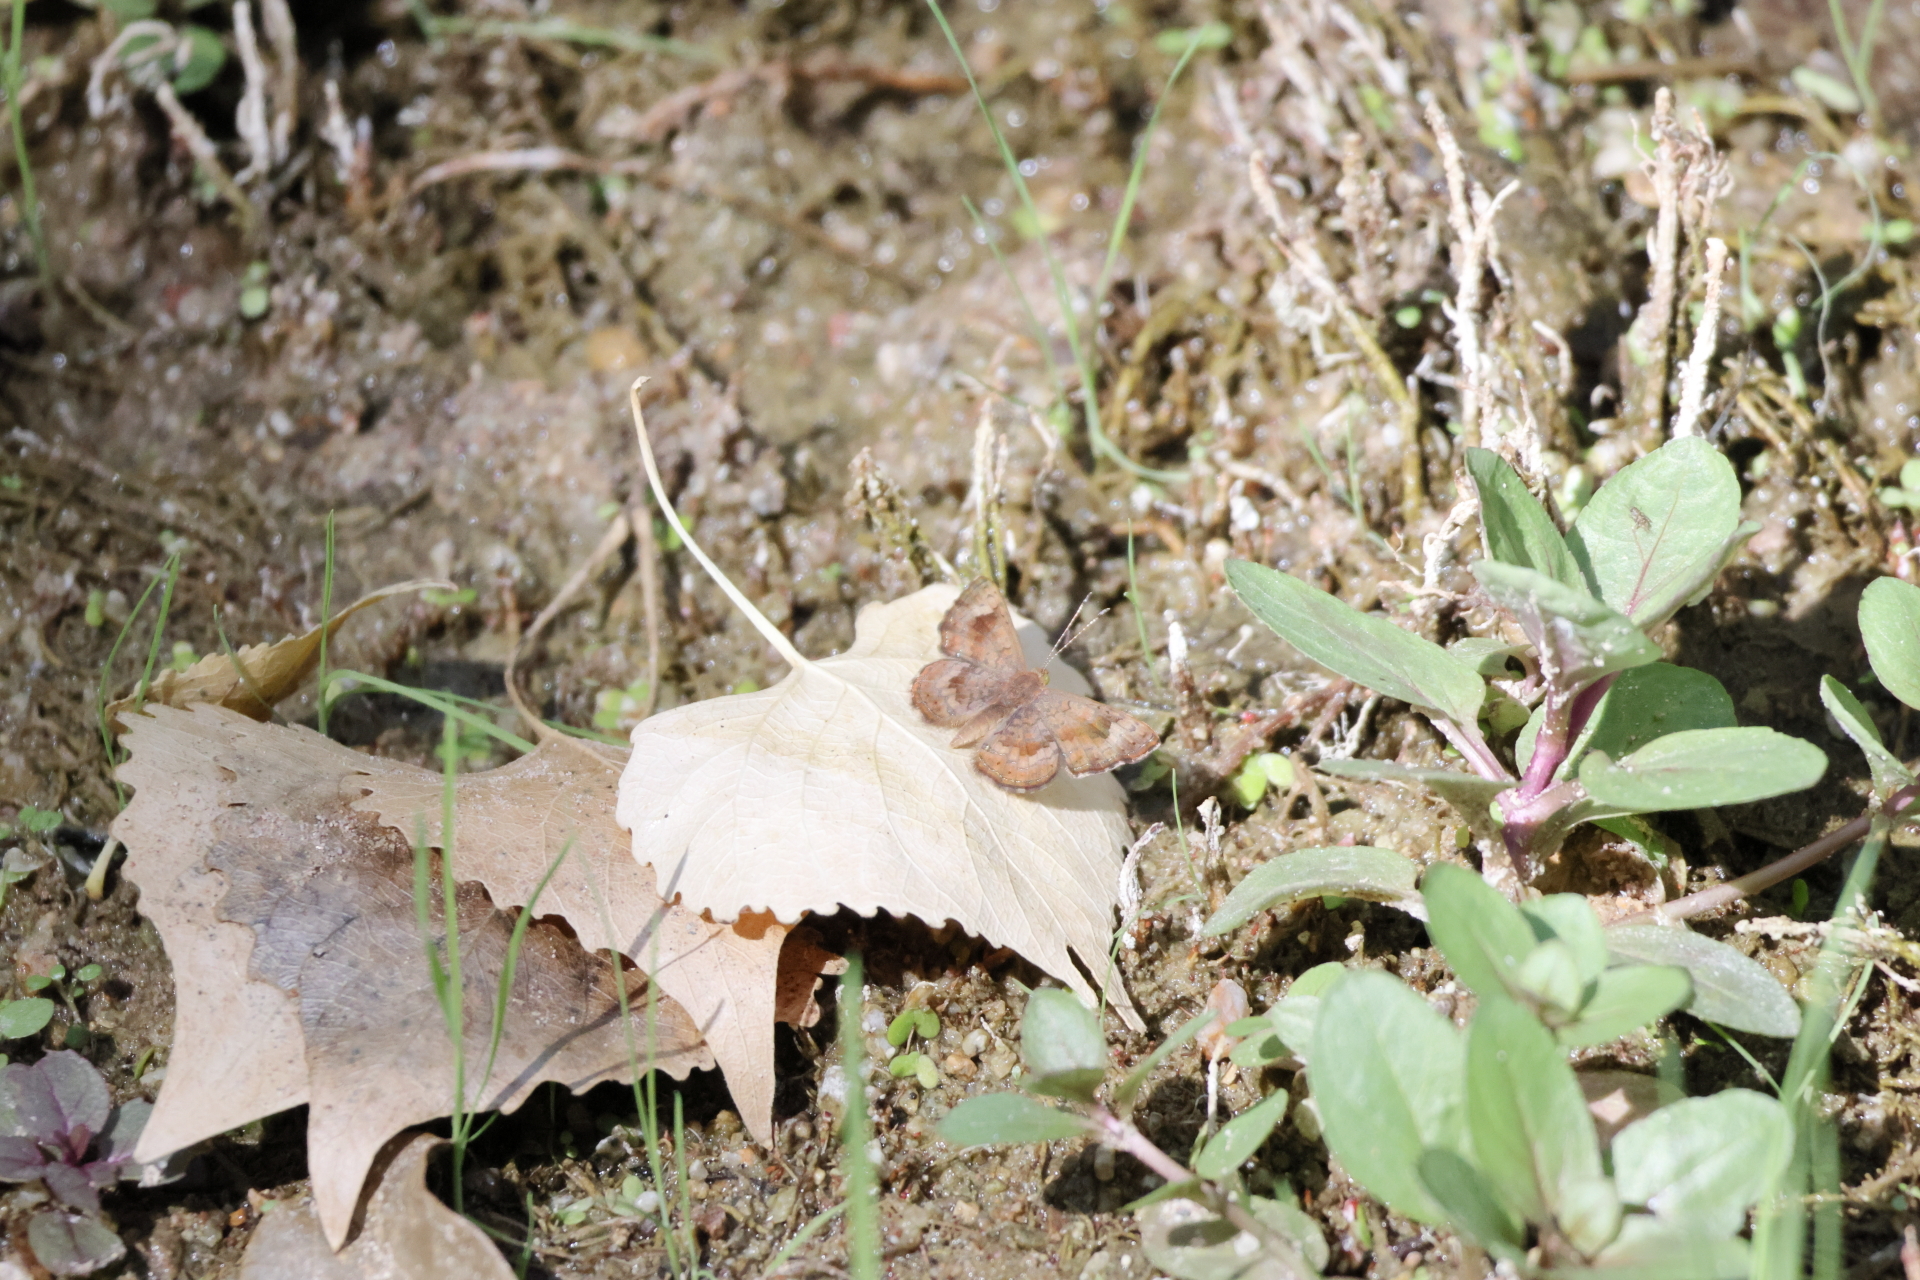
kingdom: Animalia
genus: Calephelis
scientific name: Calephelis nemesis
